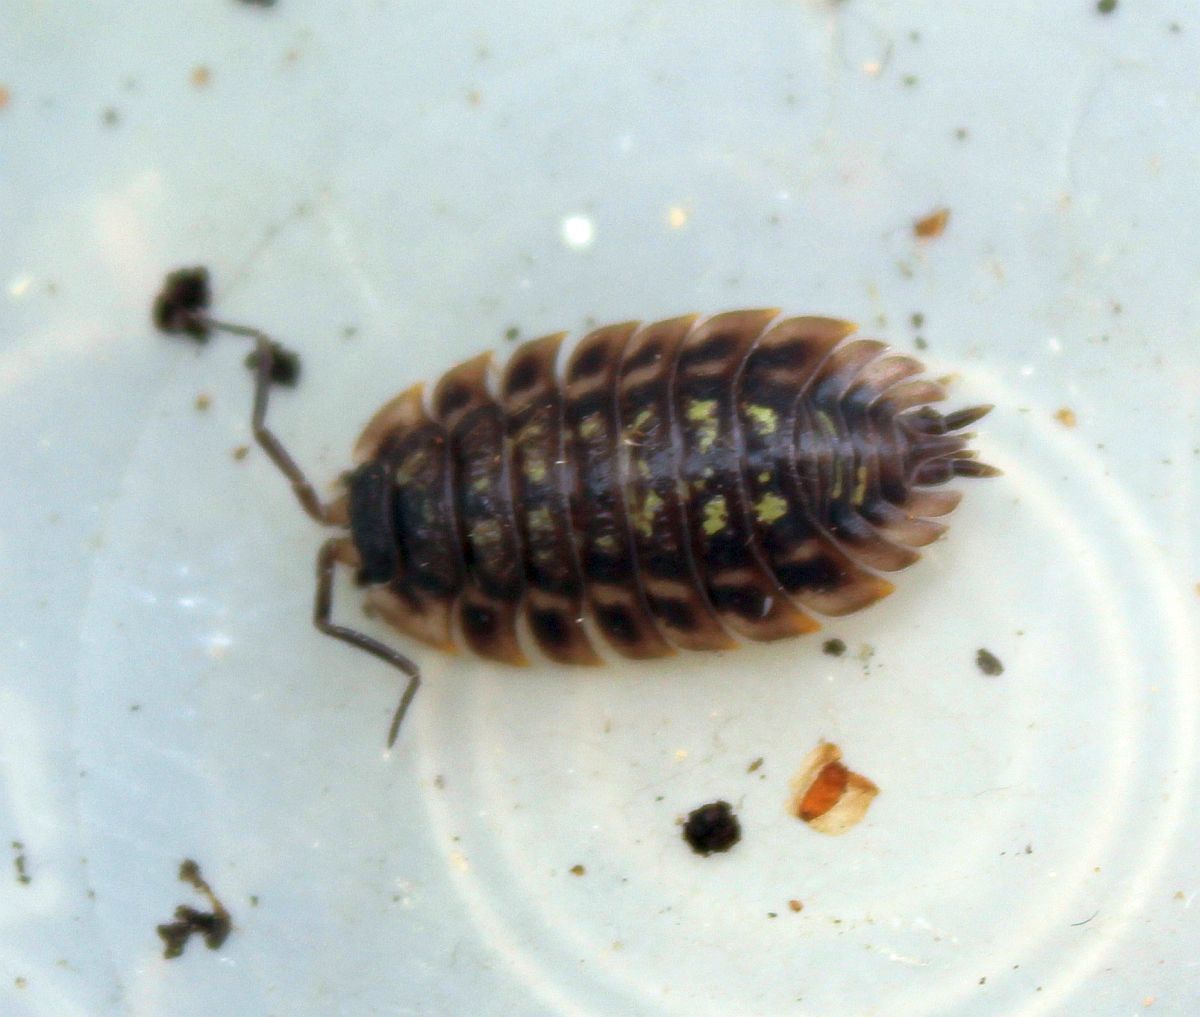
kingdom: Animalia
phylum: Arthropoda
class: Malacostraca
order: Isopoda
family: Oniscidae
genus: Oniscus
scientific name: Oniscus asellus
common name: Common shiny woodlouse
